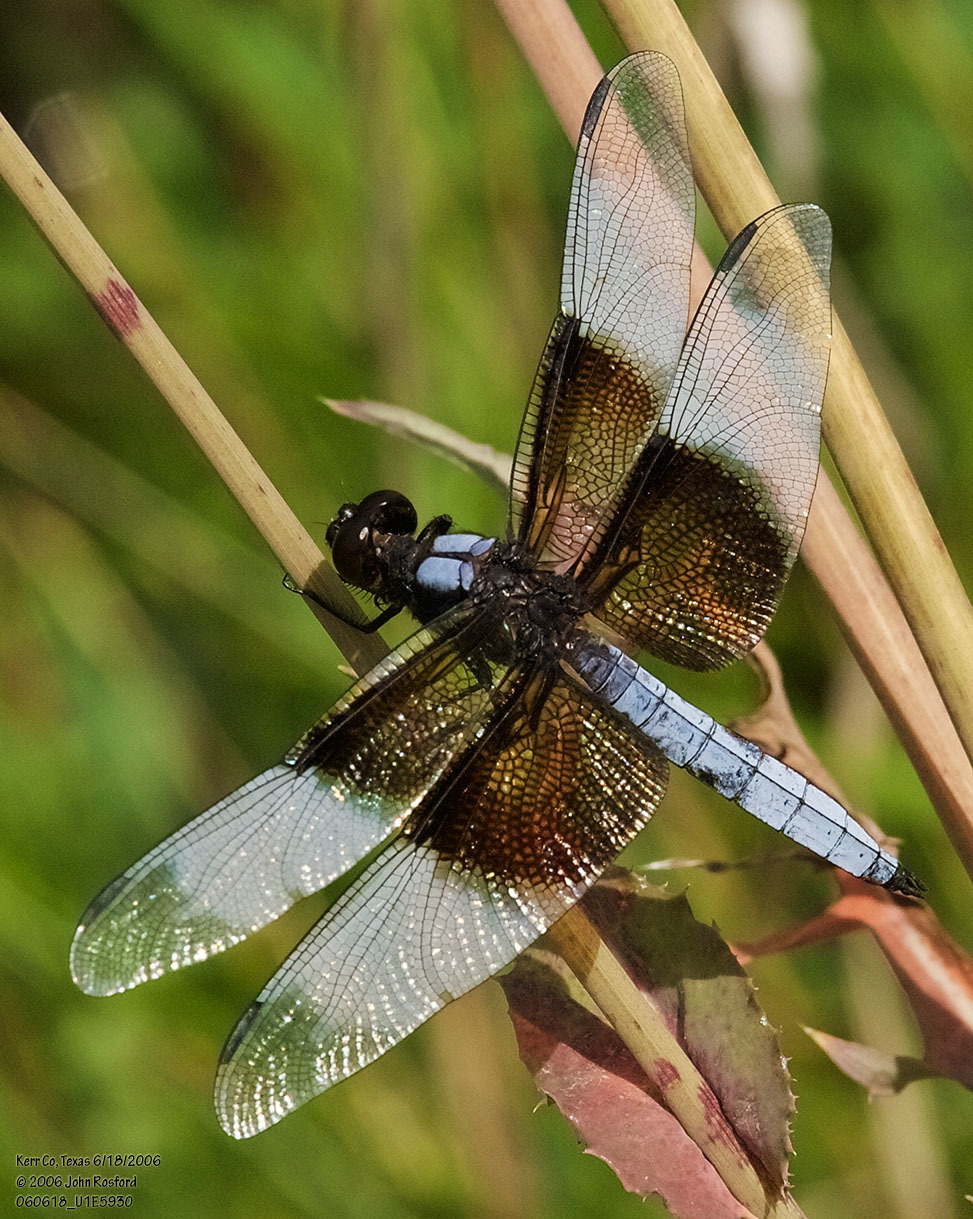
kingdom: Animalia
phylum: Arthropoda
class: Insecta
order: Odonata
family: Libellulidae
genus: Libellula
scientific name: Libellula luctuosa
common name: Widow skimmer
